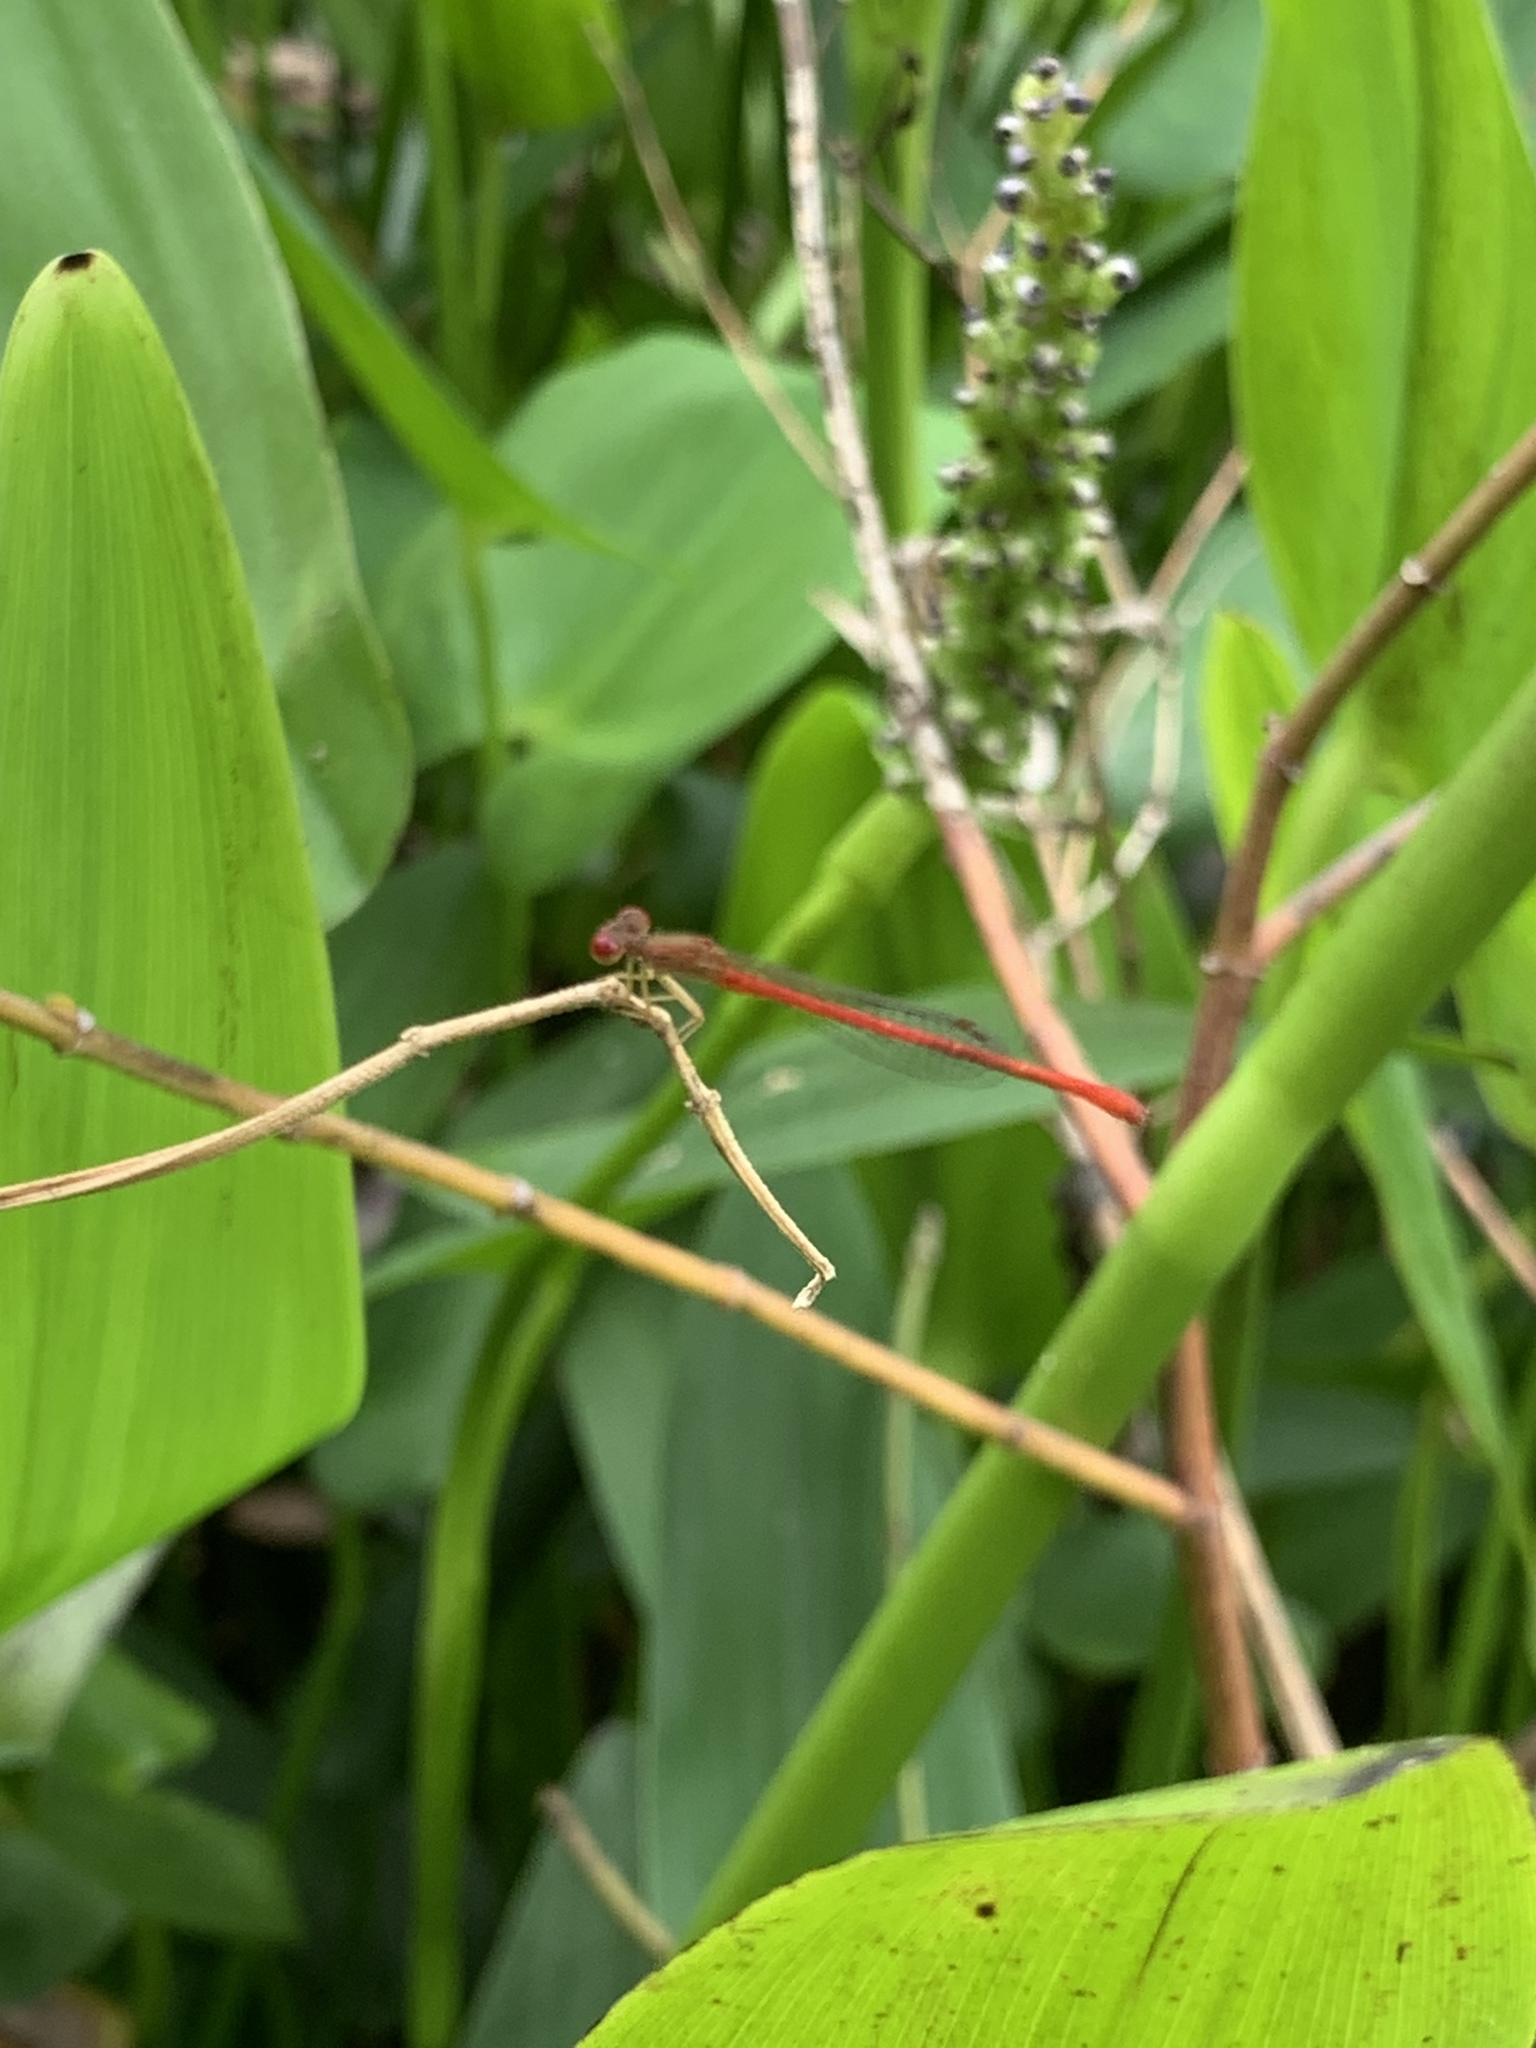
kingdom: Animalia
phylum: Arthropoda
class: Insecta
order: Odonata
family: Coenagrionidae
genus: Telebasis
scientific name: Telebasis byersi
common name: Duckweed firetail
